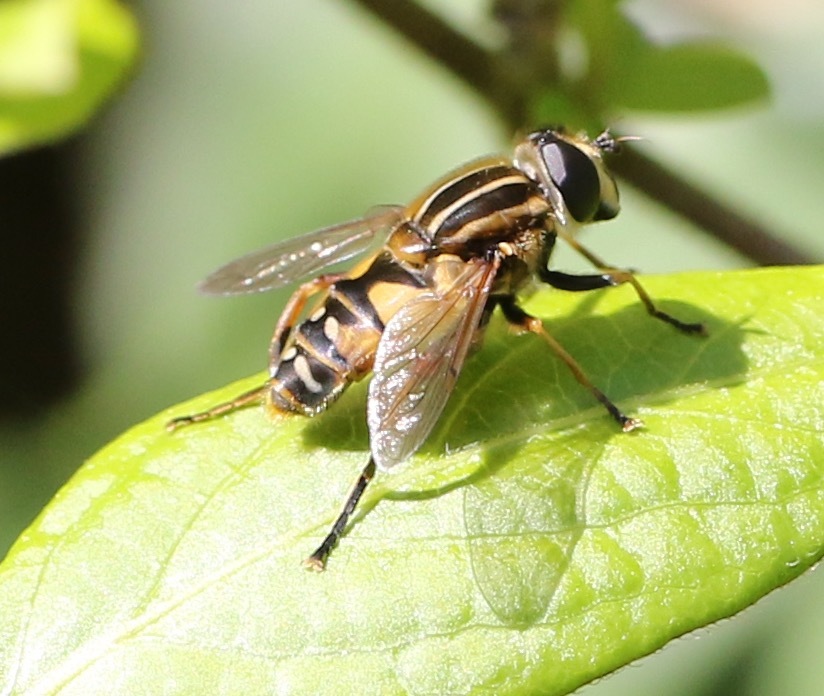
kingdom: Animalia
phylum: Arthropoda
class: Insecta
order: Diptera
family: Syrphidae
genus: Helophilus
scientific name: Helophilus pendulus
